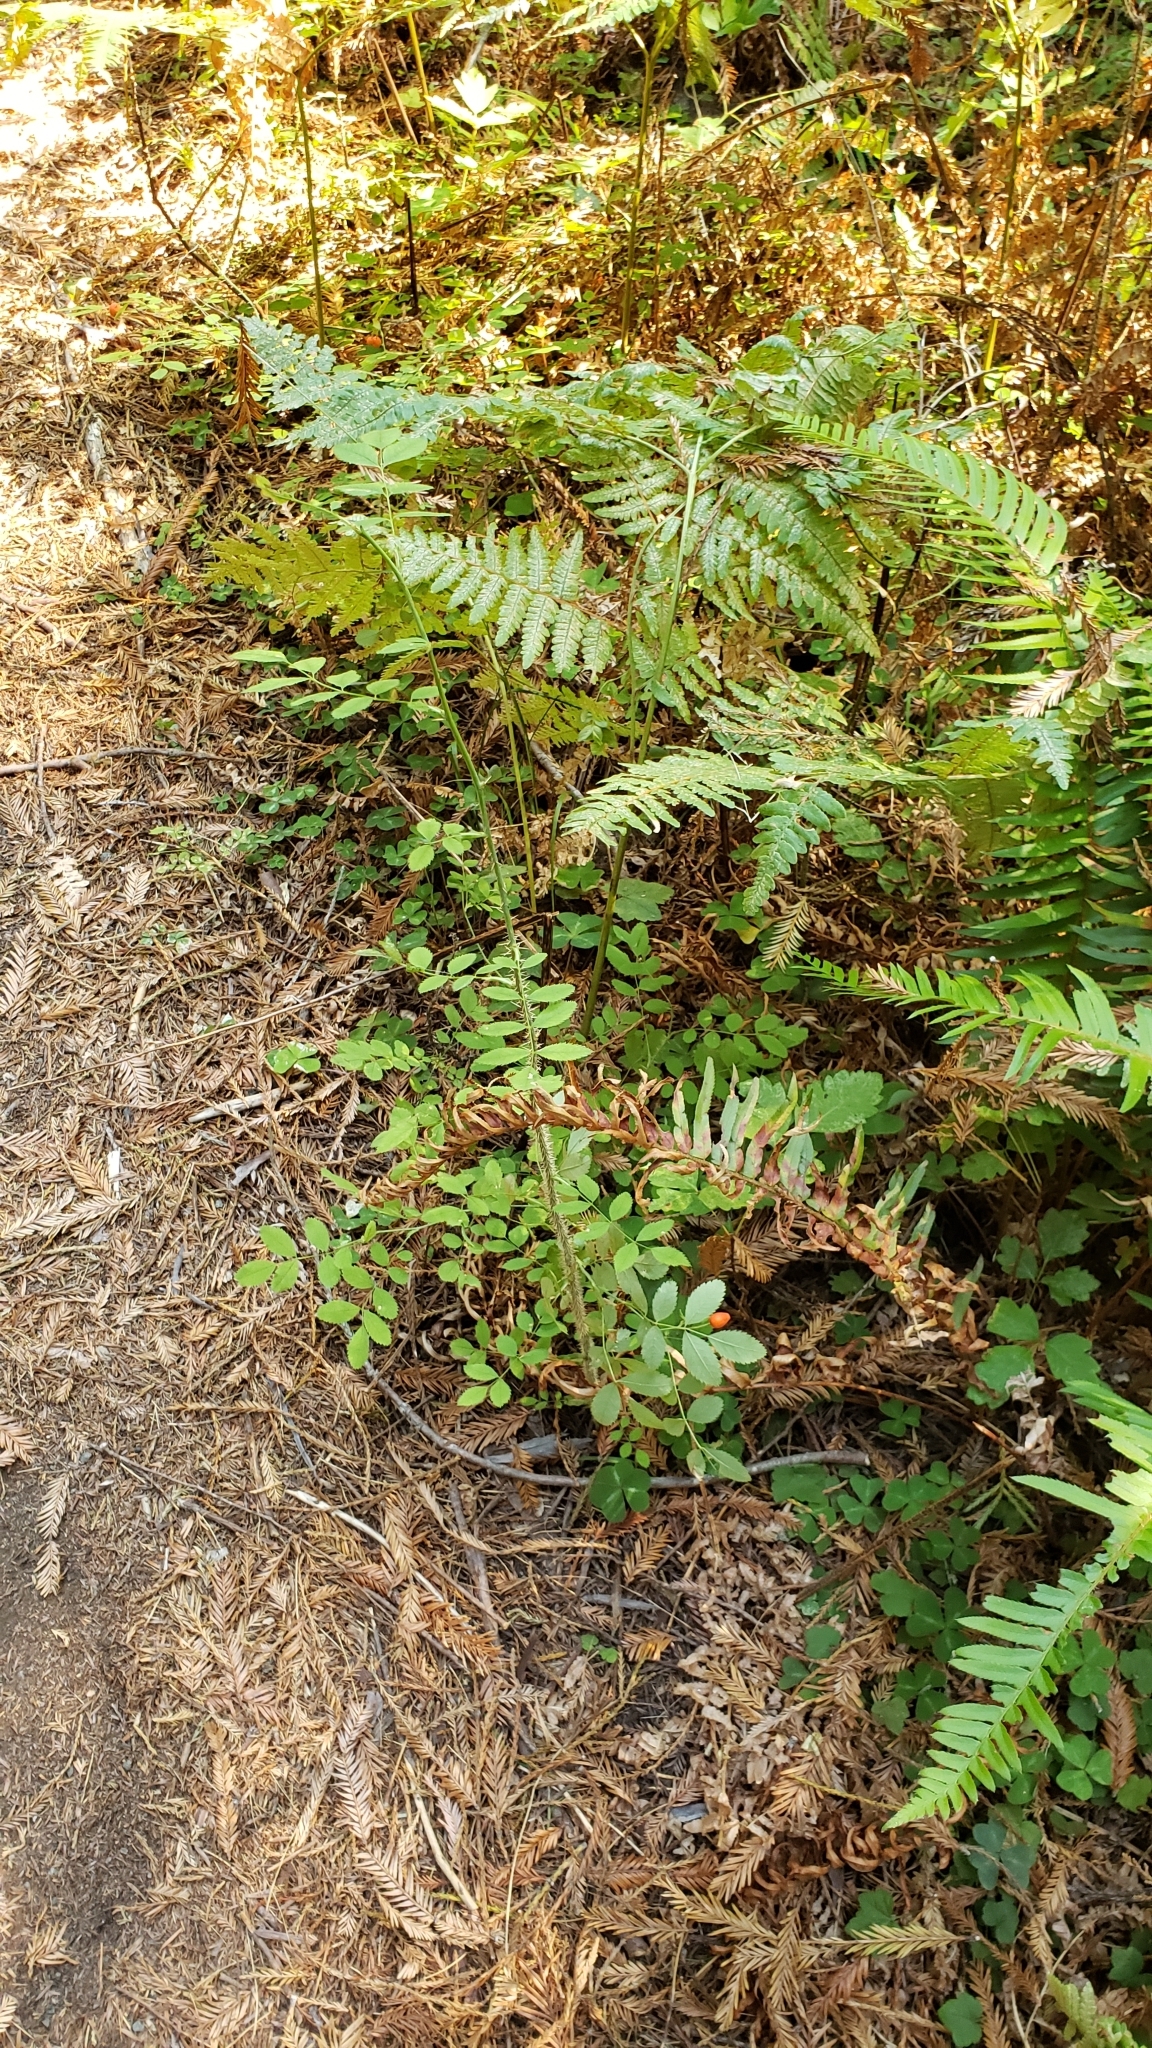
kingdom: Plantae
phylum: Tracheophyta
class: Magnoliopsida
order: Rosales
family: Rosaceae
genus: Rosa
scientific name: Rosa gymnocarpa
